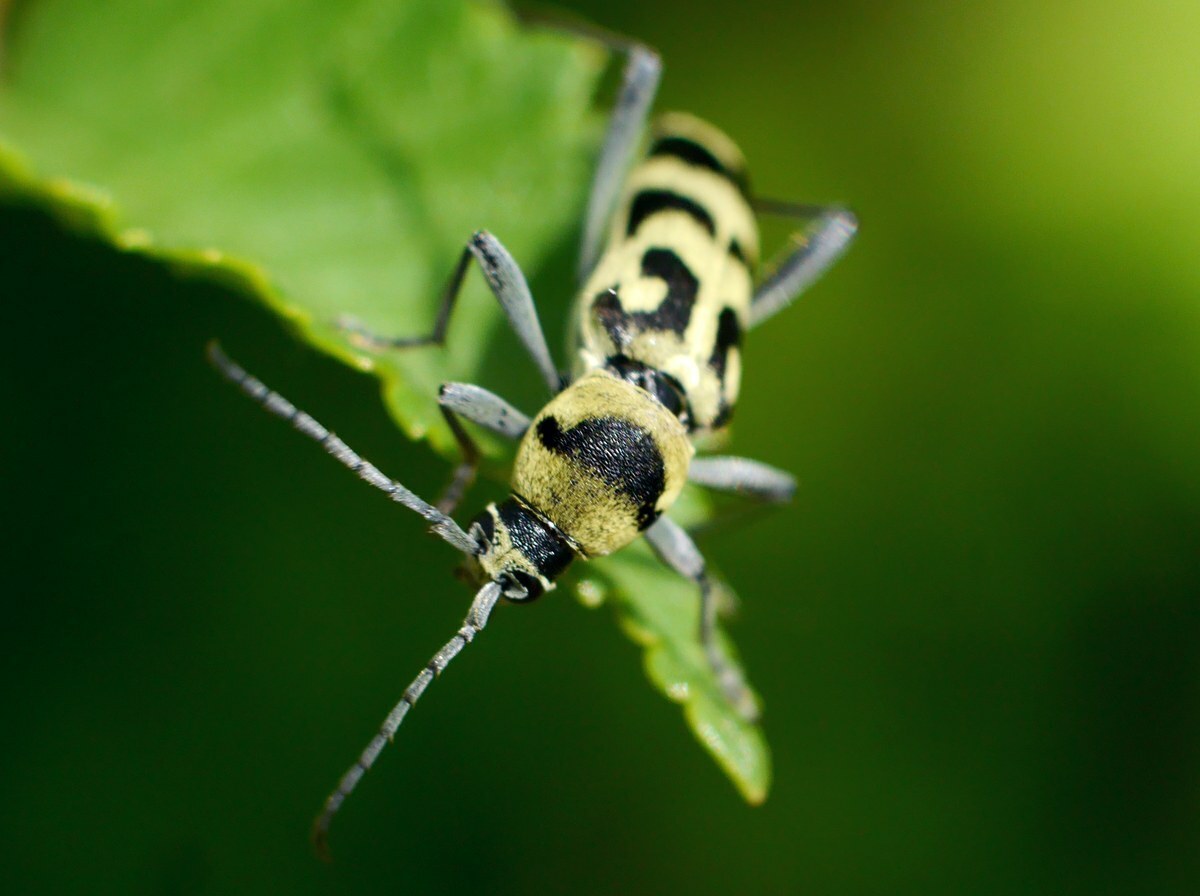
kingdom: Animalia
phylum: Arthropoda
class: Insecta
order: Coleoptera
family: Cerambycidae
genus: Chlorophorus
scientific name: Chlorophorus varius
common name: Grape wood borer
